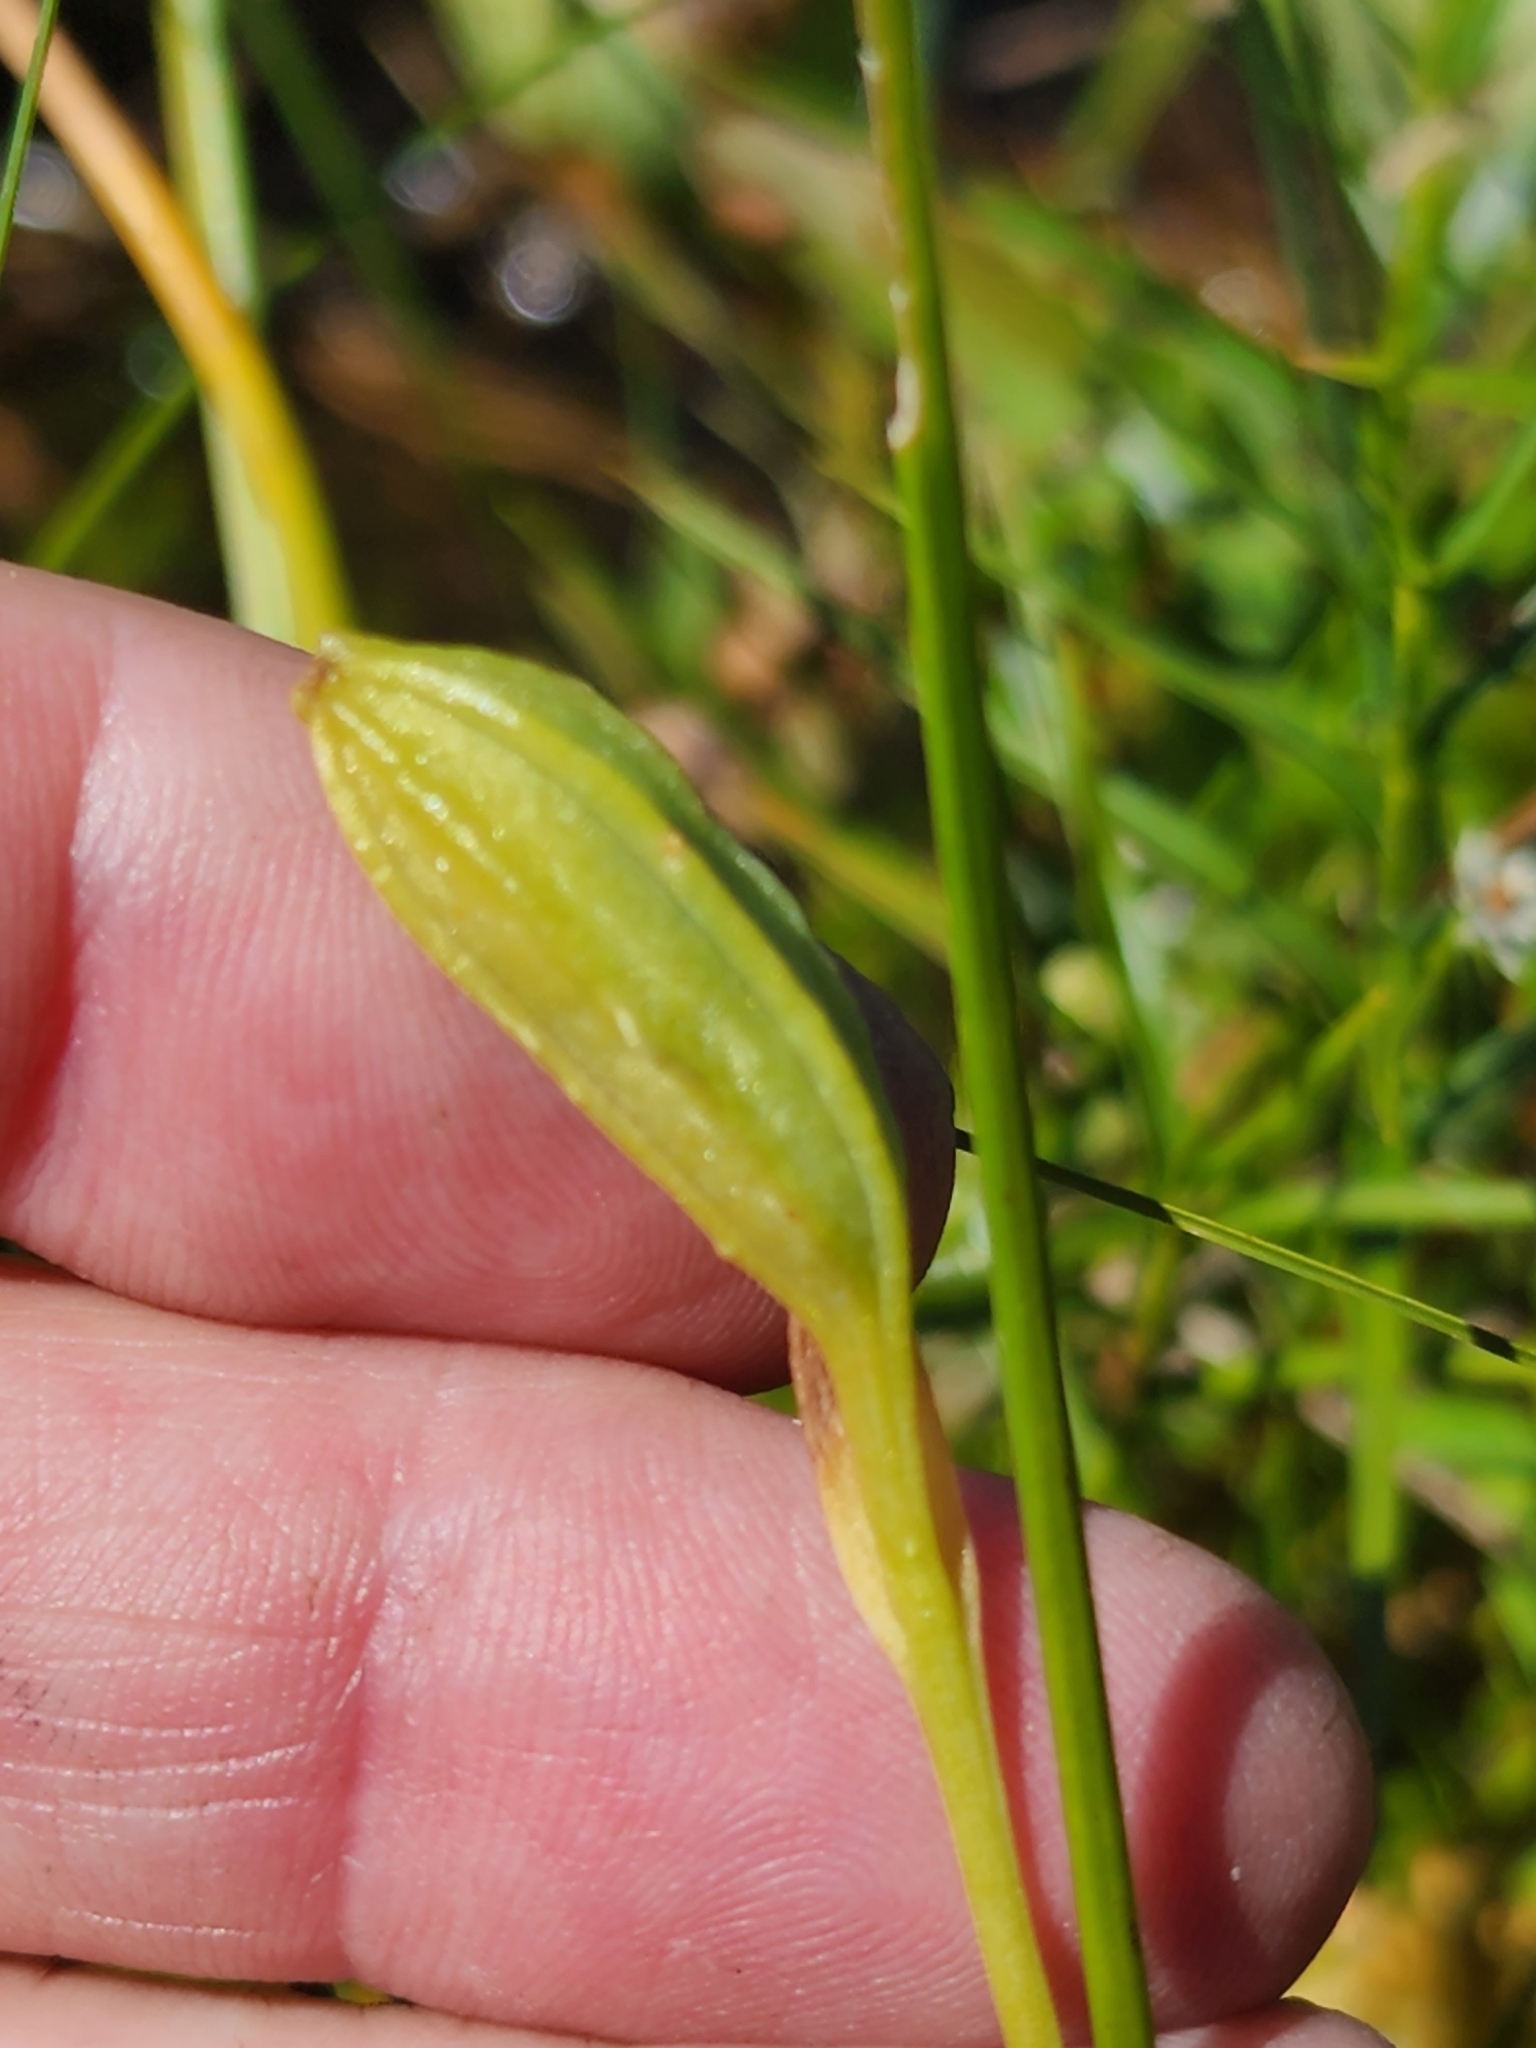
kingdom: Plantae
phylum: Tracheophyta
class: Liliopsida
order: Asparagales
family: Orchidaceae
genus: Pogonia
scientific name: Pogonia ophioglossoides
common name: Rose pogonia
